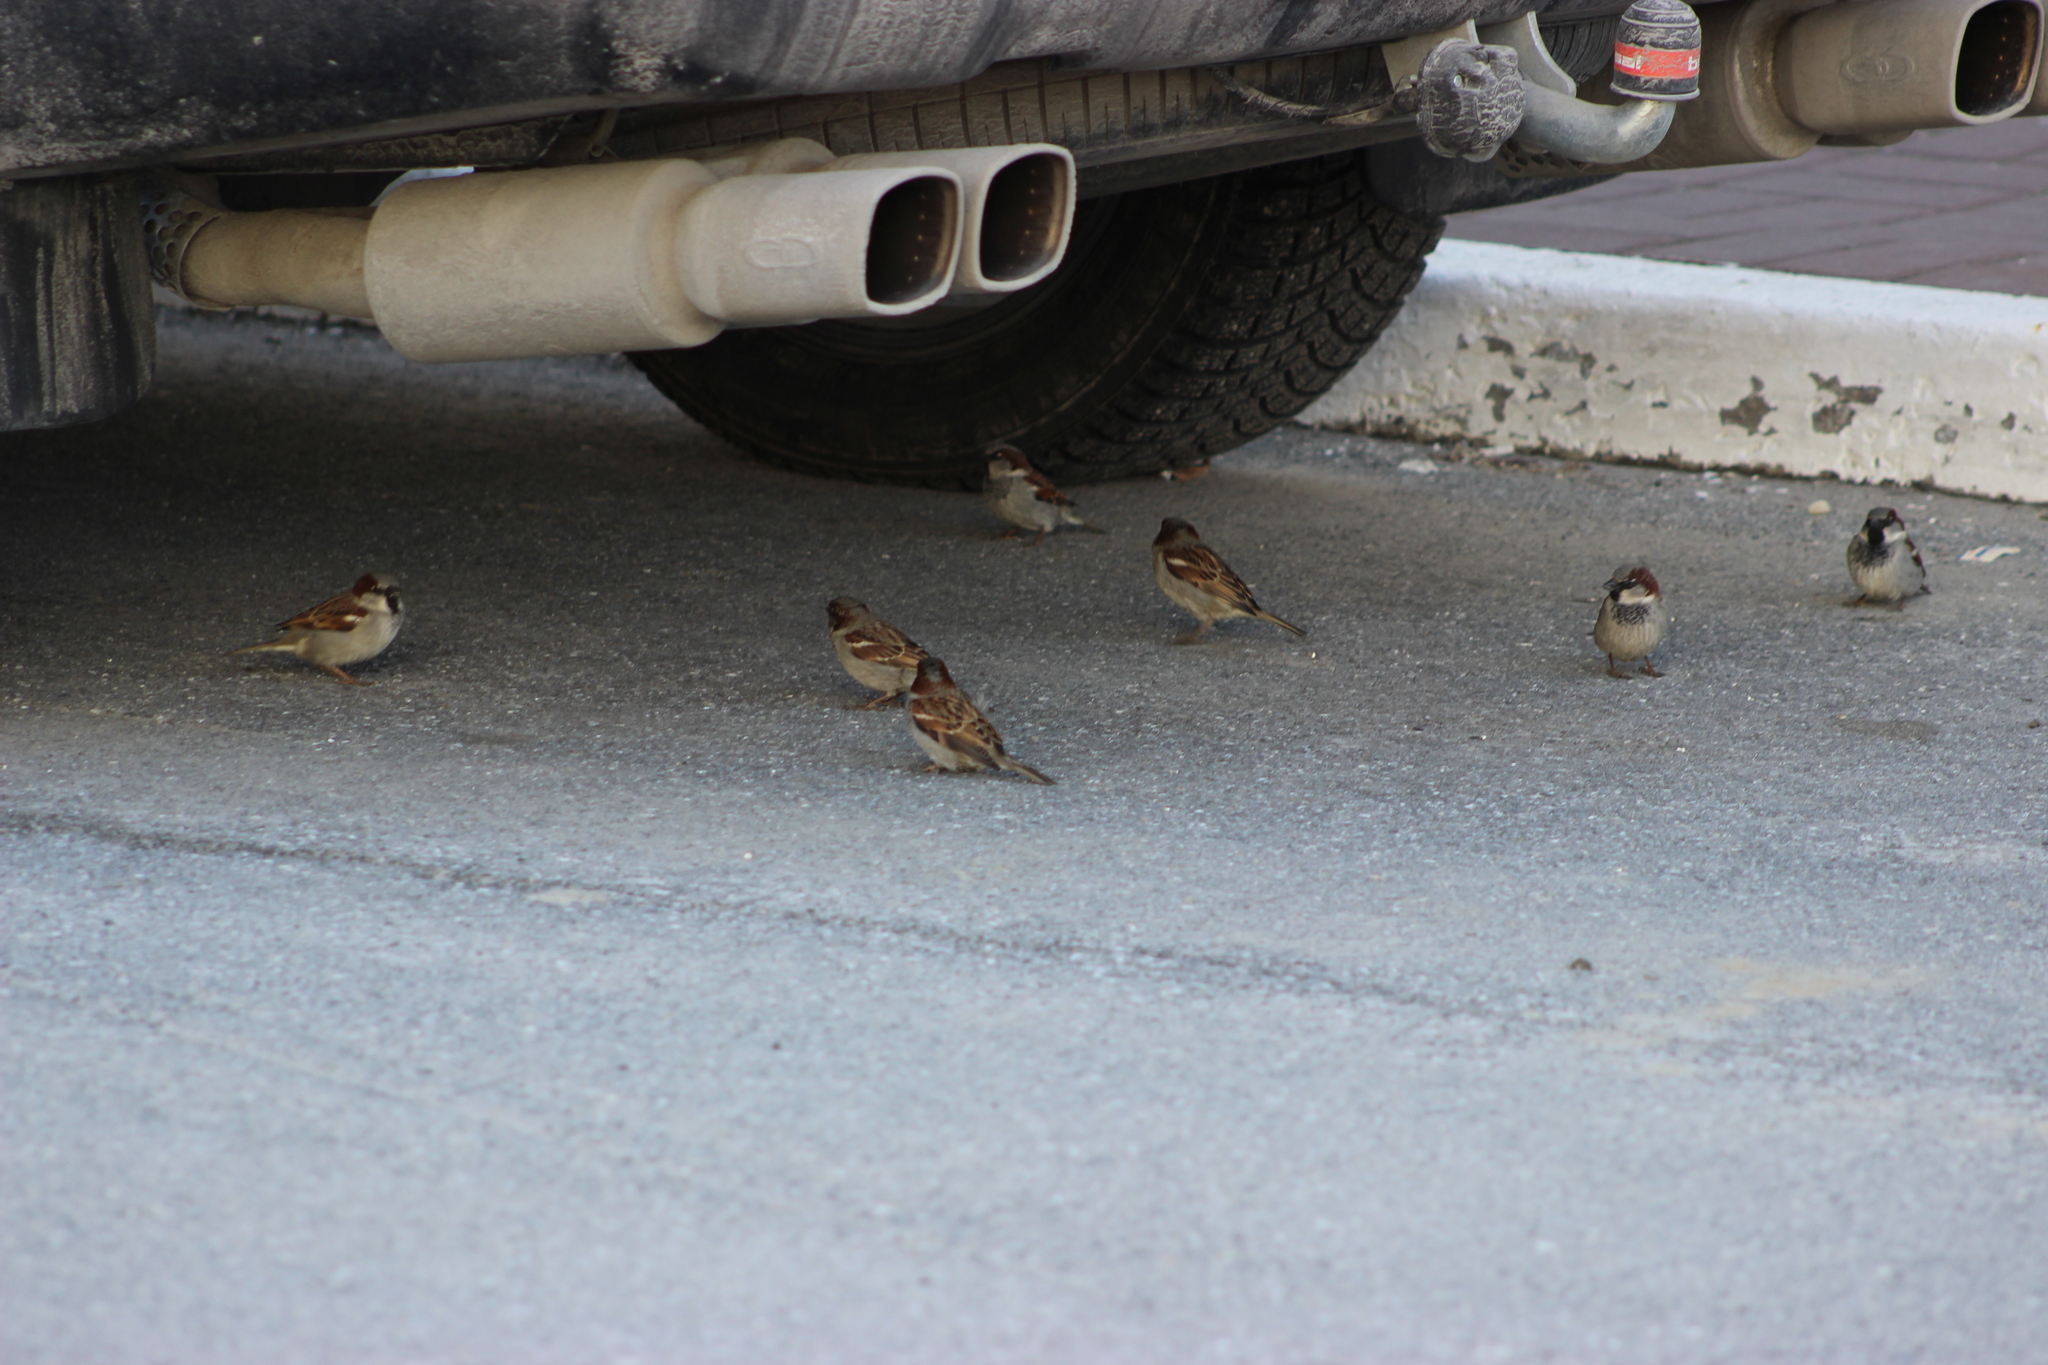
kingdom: Animalia
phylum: Chordata
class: Aves
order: Passeriformes
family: Passeridae
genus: Passer
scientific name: Passer domesticus
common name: House sparrow
